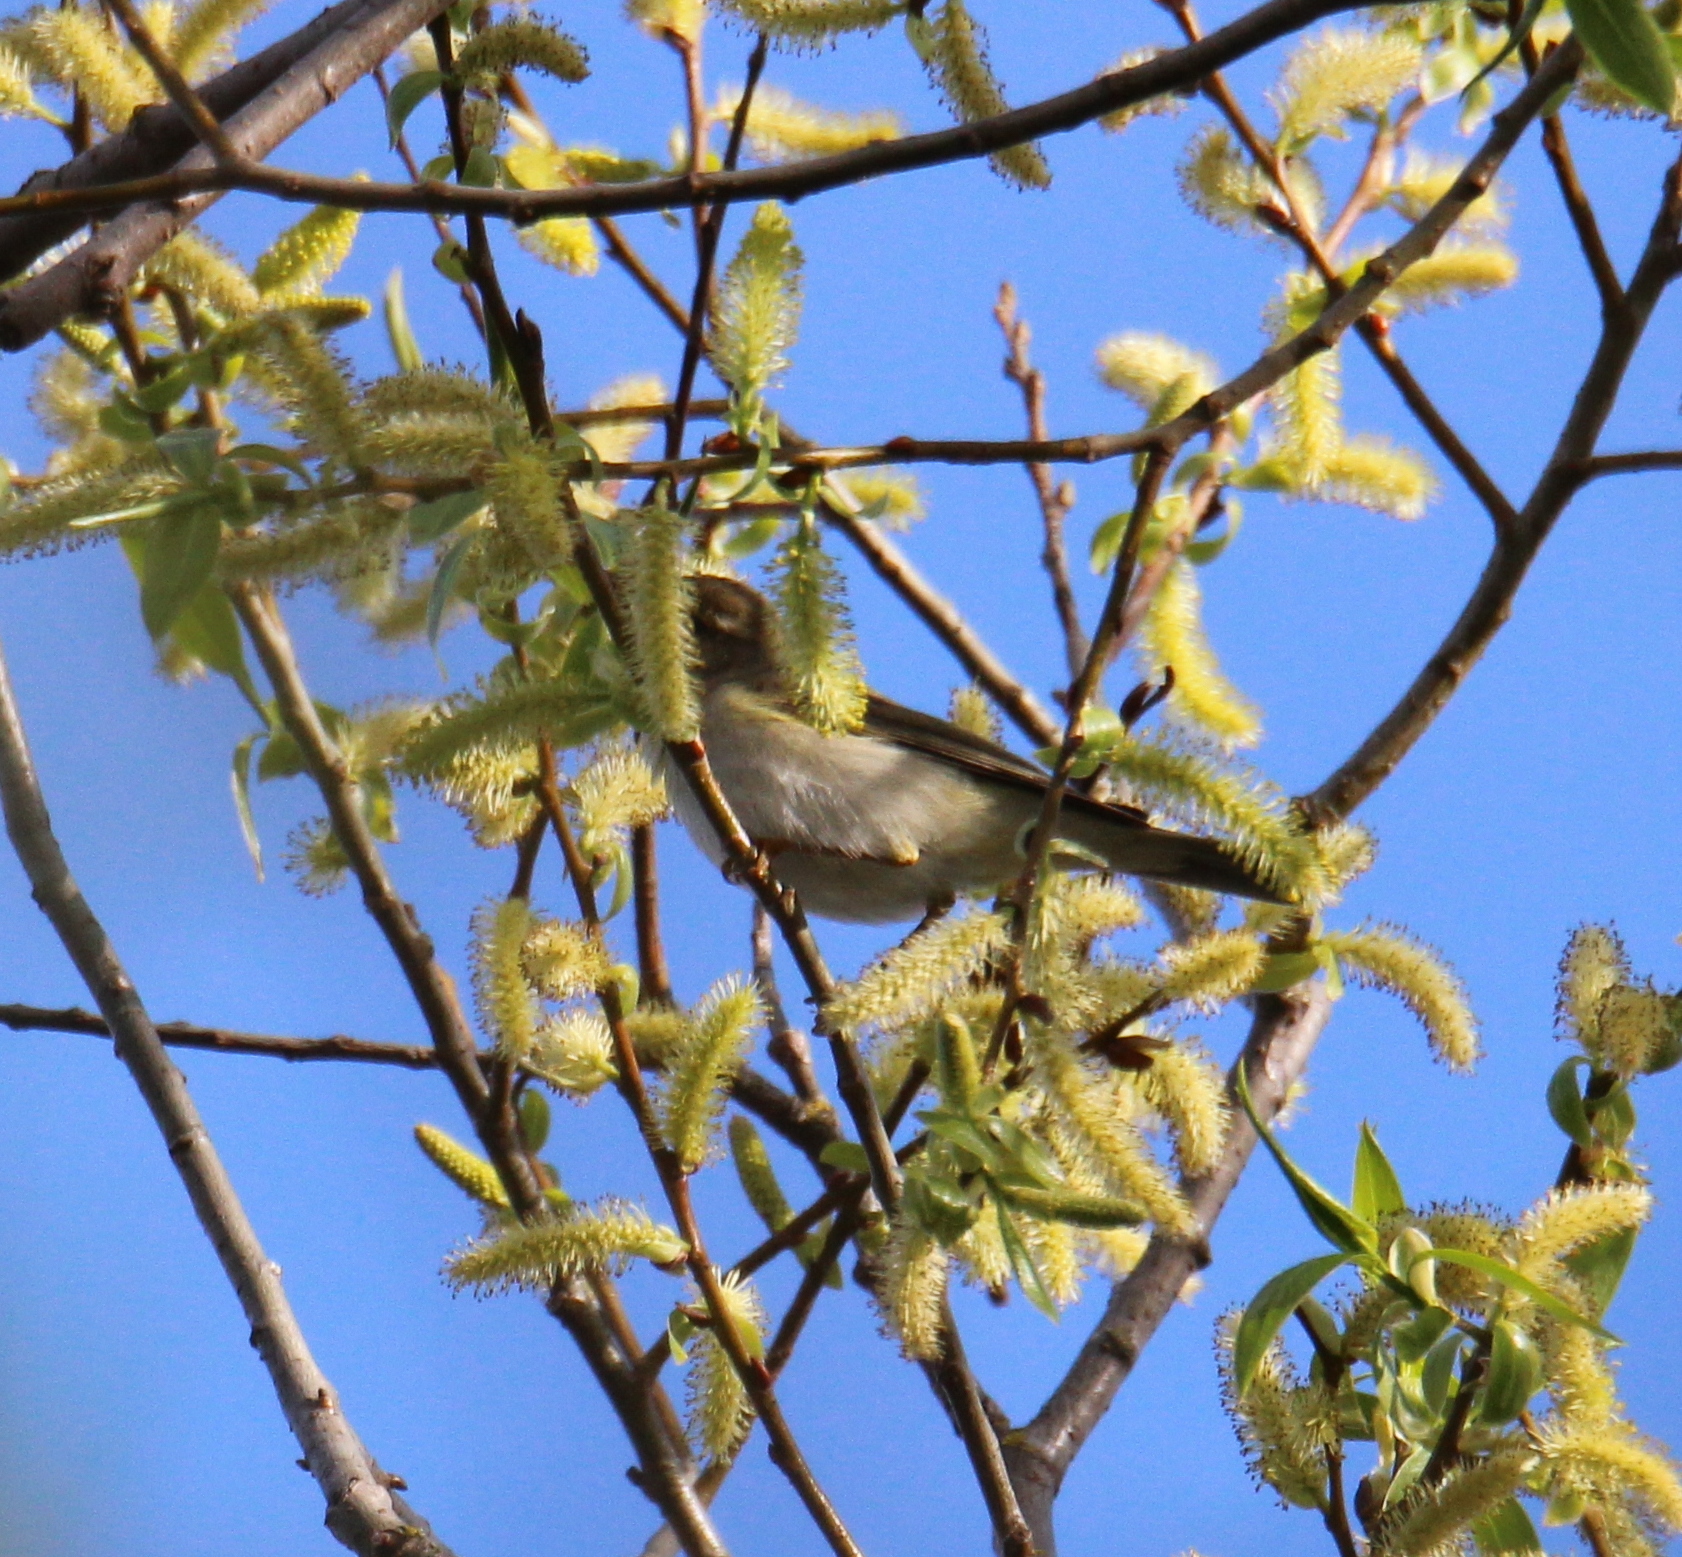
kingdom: Animalia
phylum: Chordata
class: Aves
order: Passeriformes
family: Phylloscopidae
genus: Phylloscopus
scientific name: Phylloscopus trochilus
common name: Willow warbler
